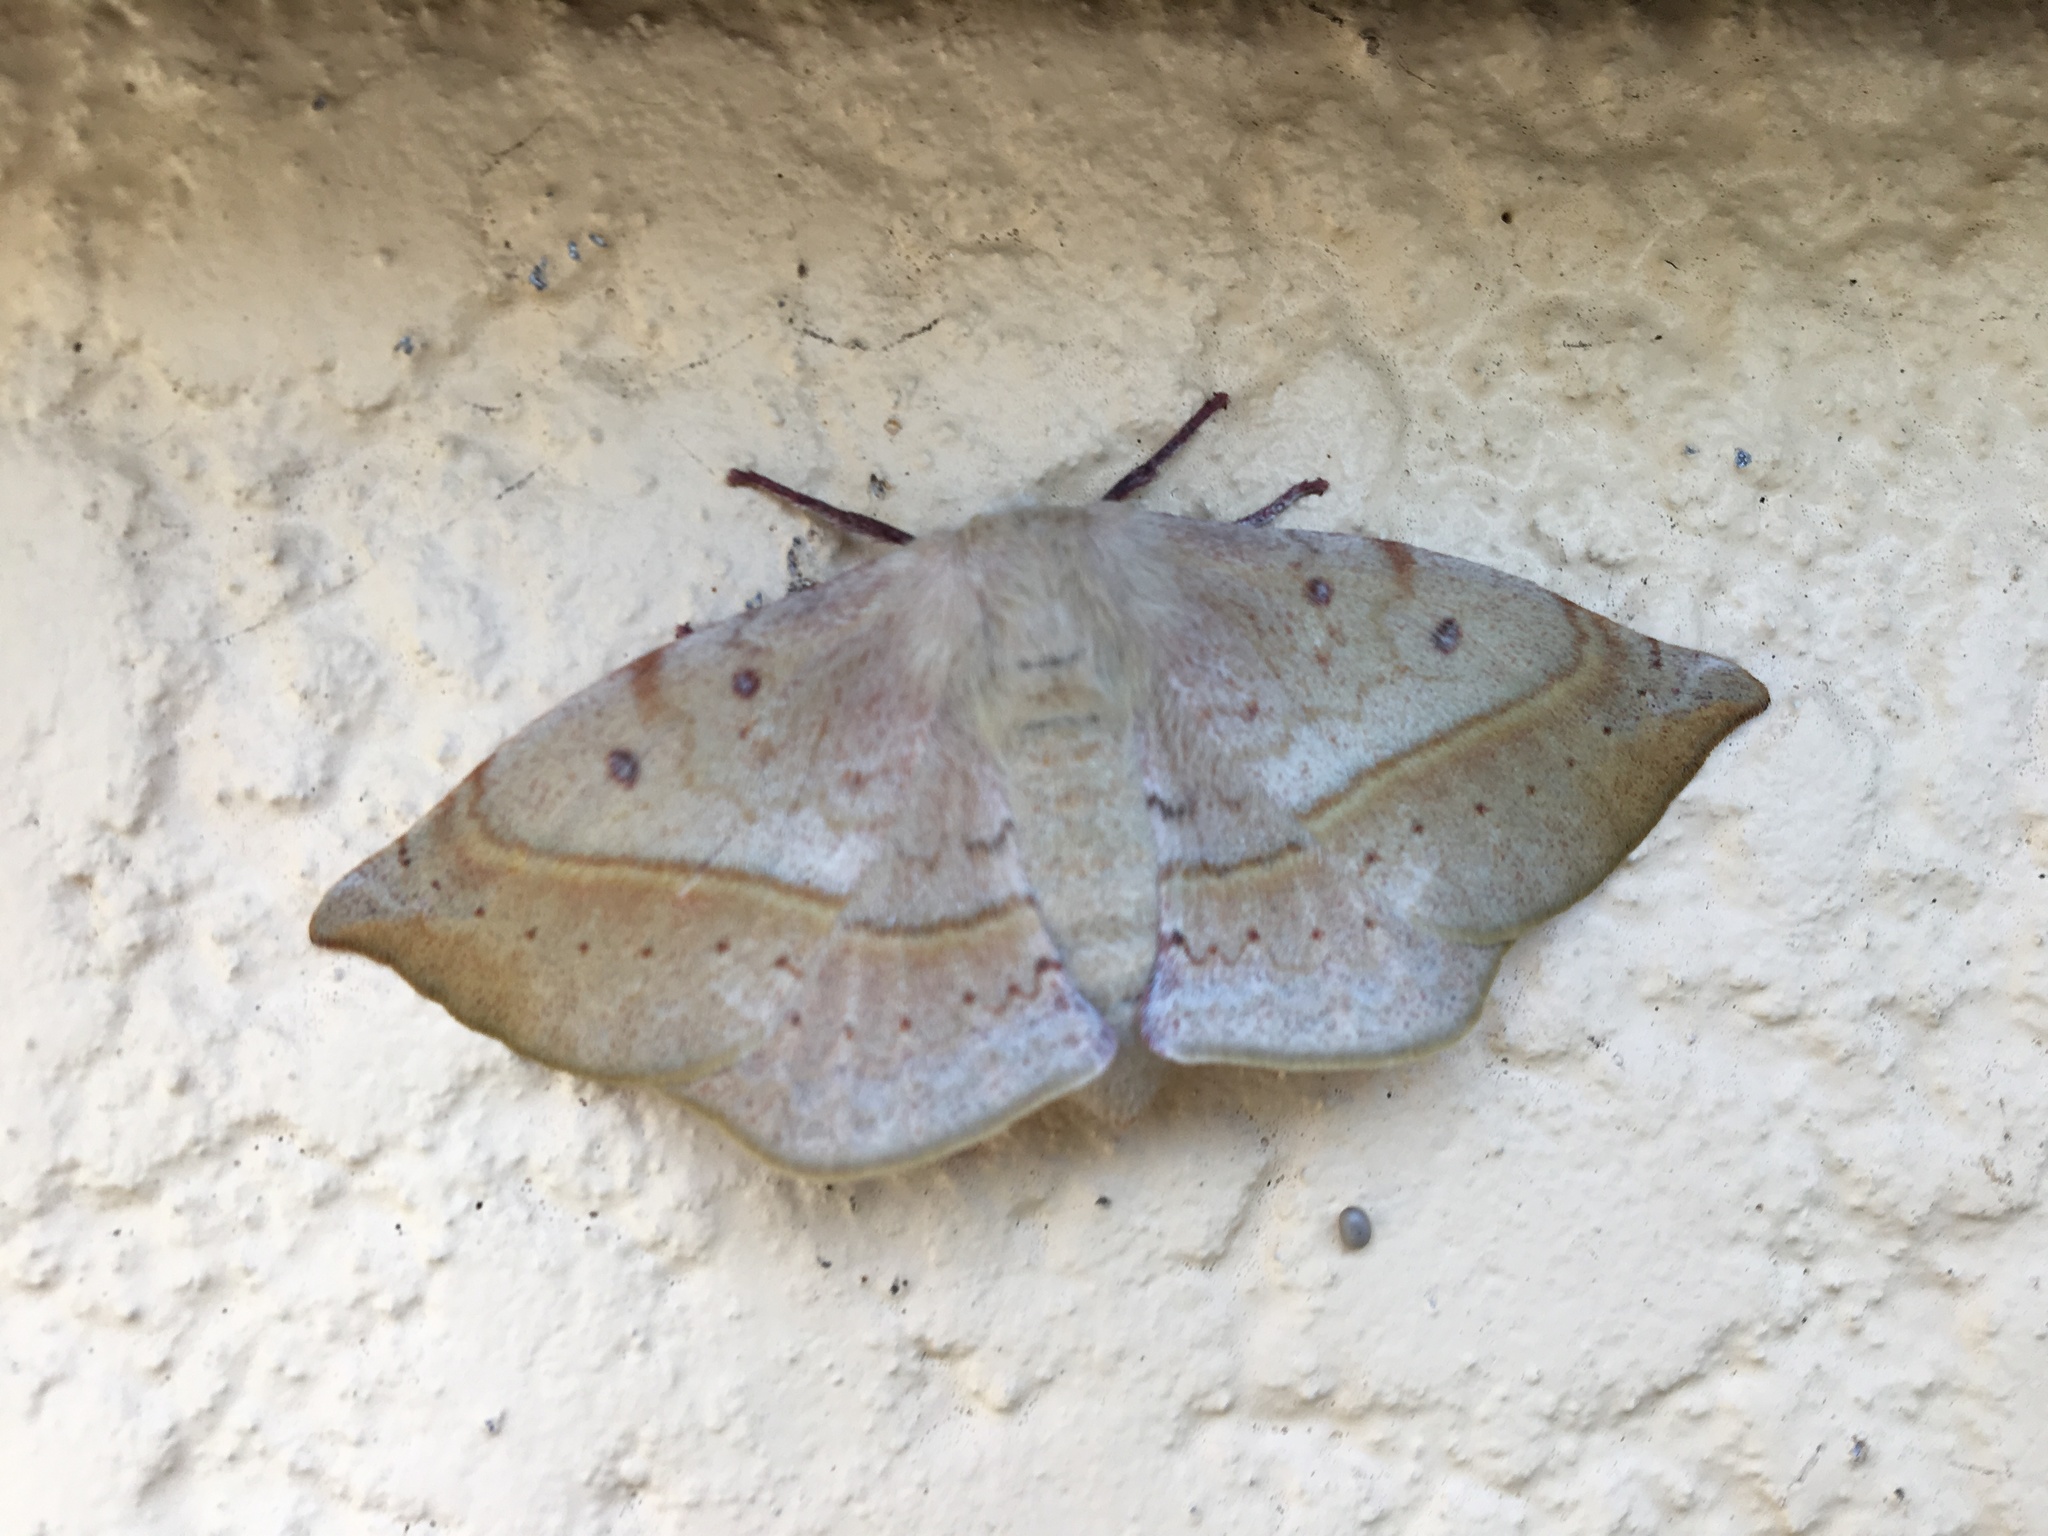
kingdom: Animalia
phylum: Arthropoda
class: Insecta
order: Lepidoptera
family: Anthelidae
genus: Anthela
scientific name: Anthela
